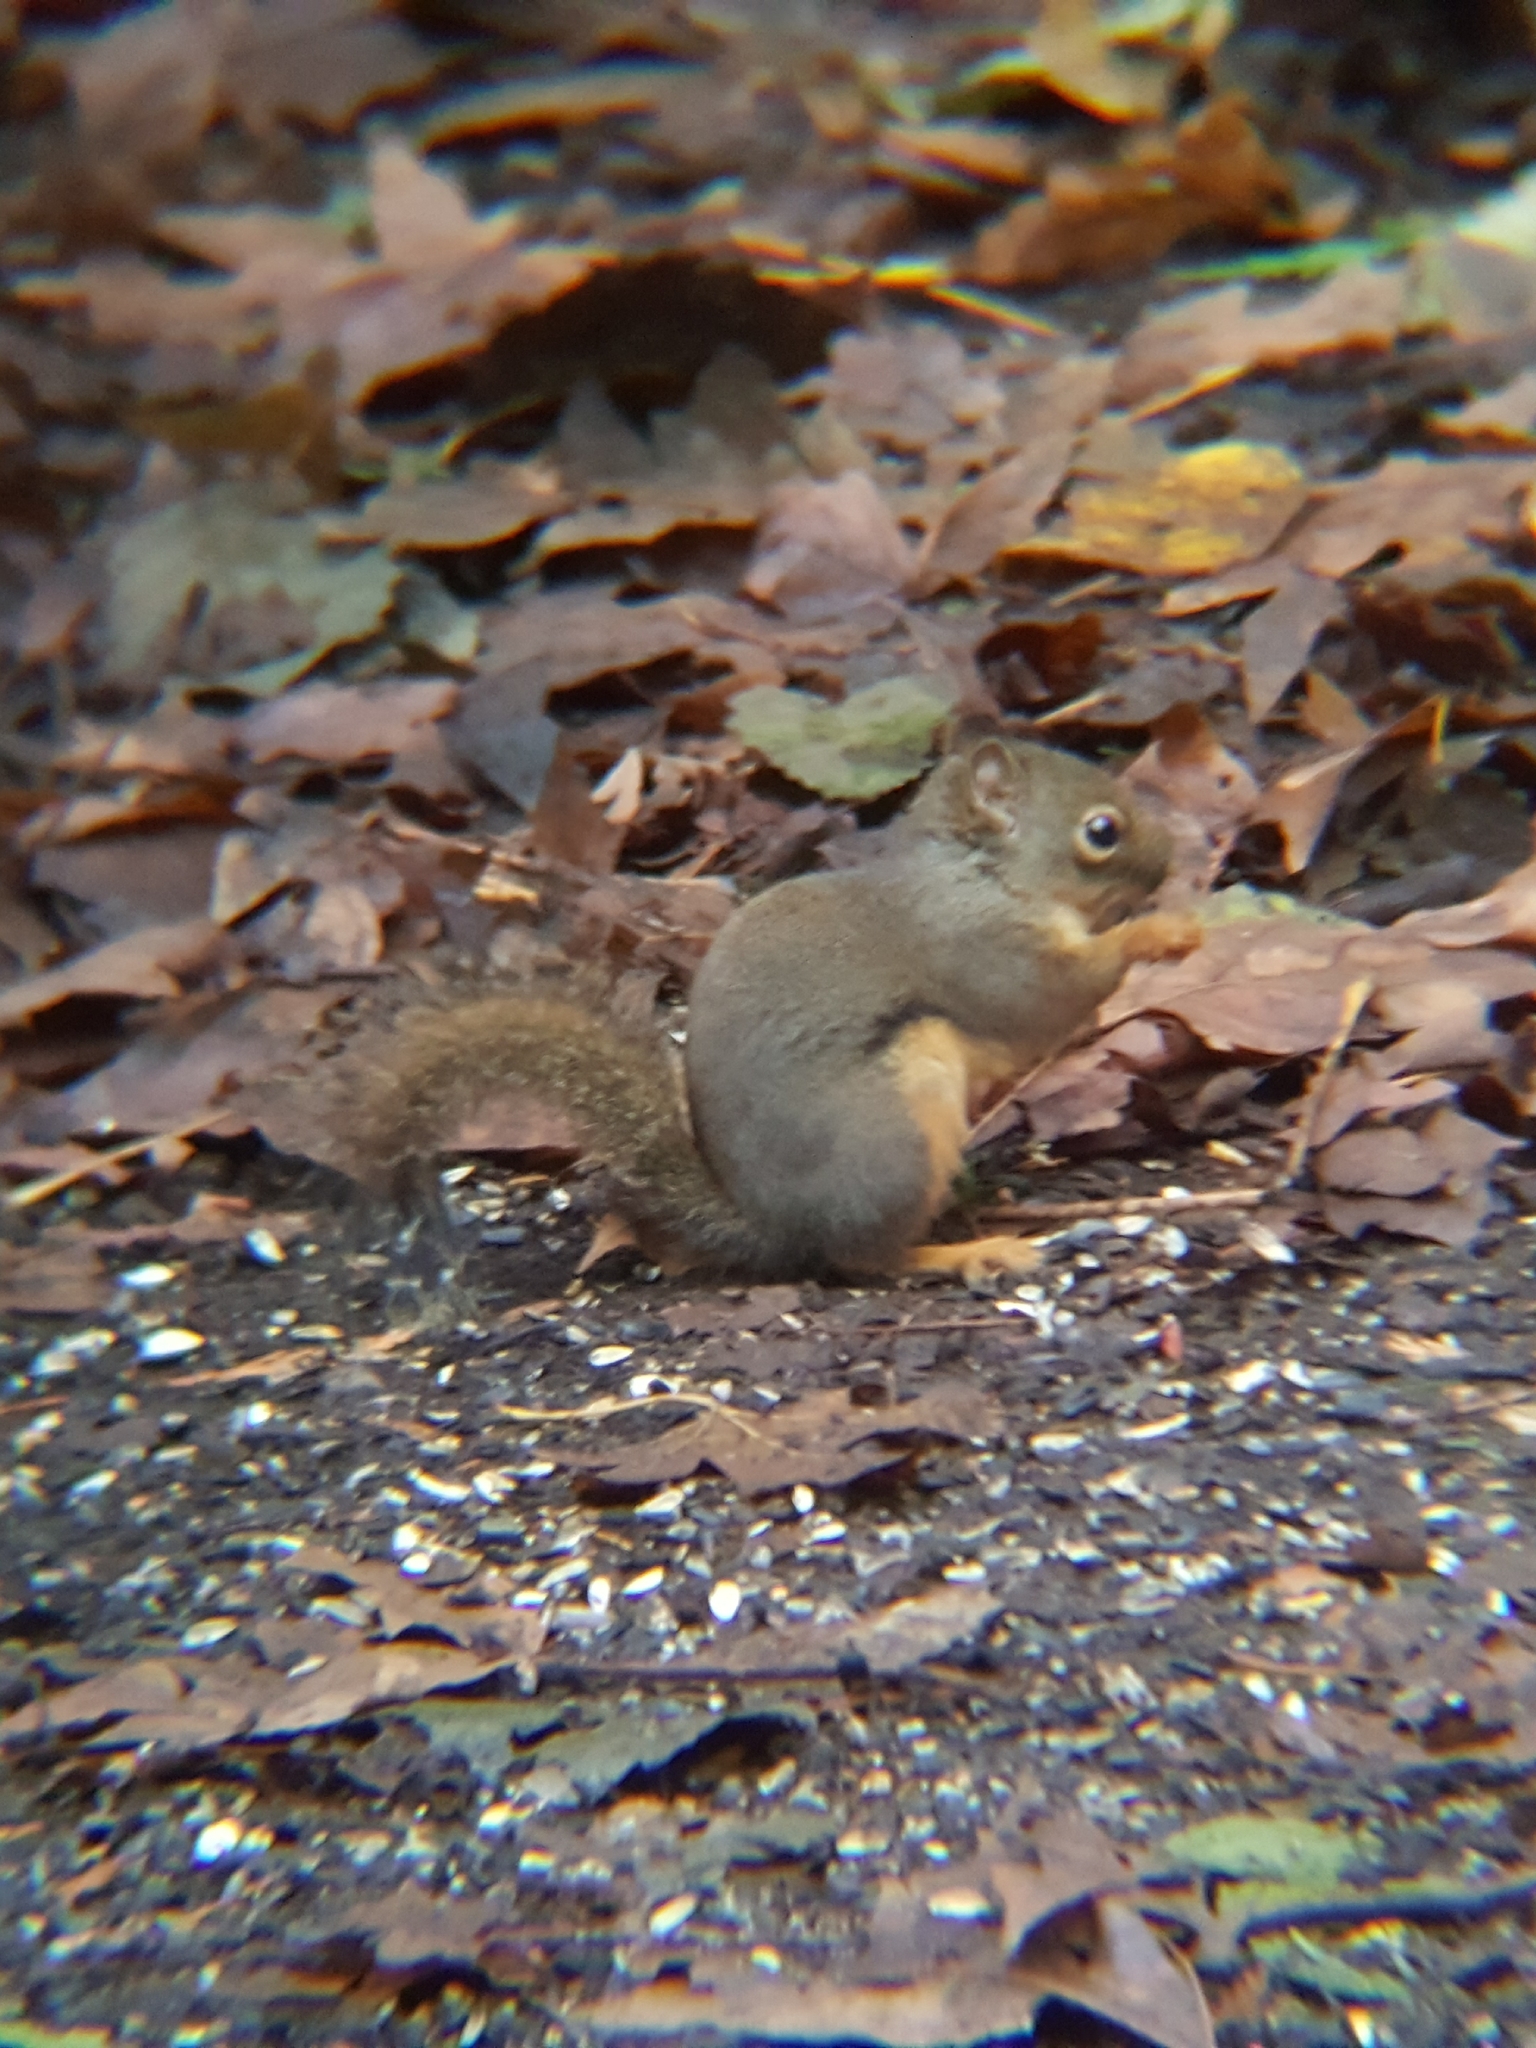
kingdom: Animalia
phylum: Chordata
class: Mammalia
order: Rodentia
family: Sciuridae
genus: Tamiasciurus
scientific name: Tamiasciurus douglasii
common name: Douglas's squirrel
